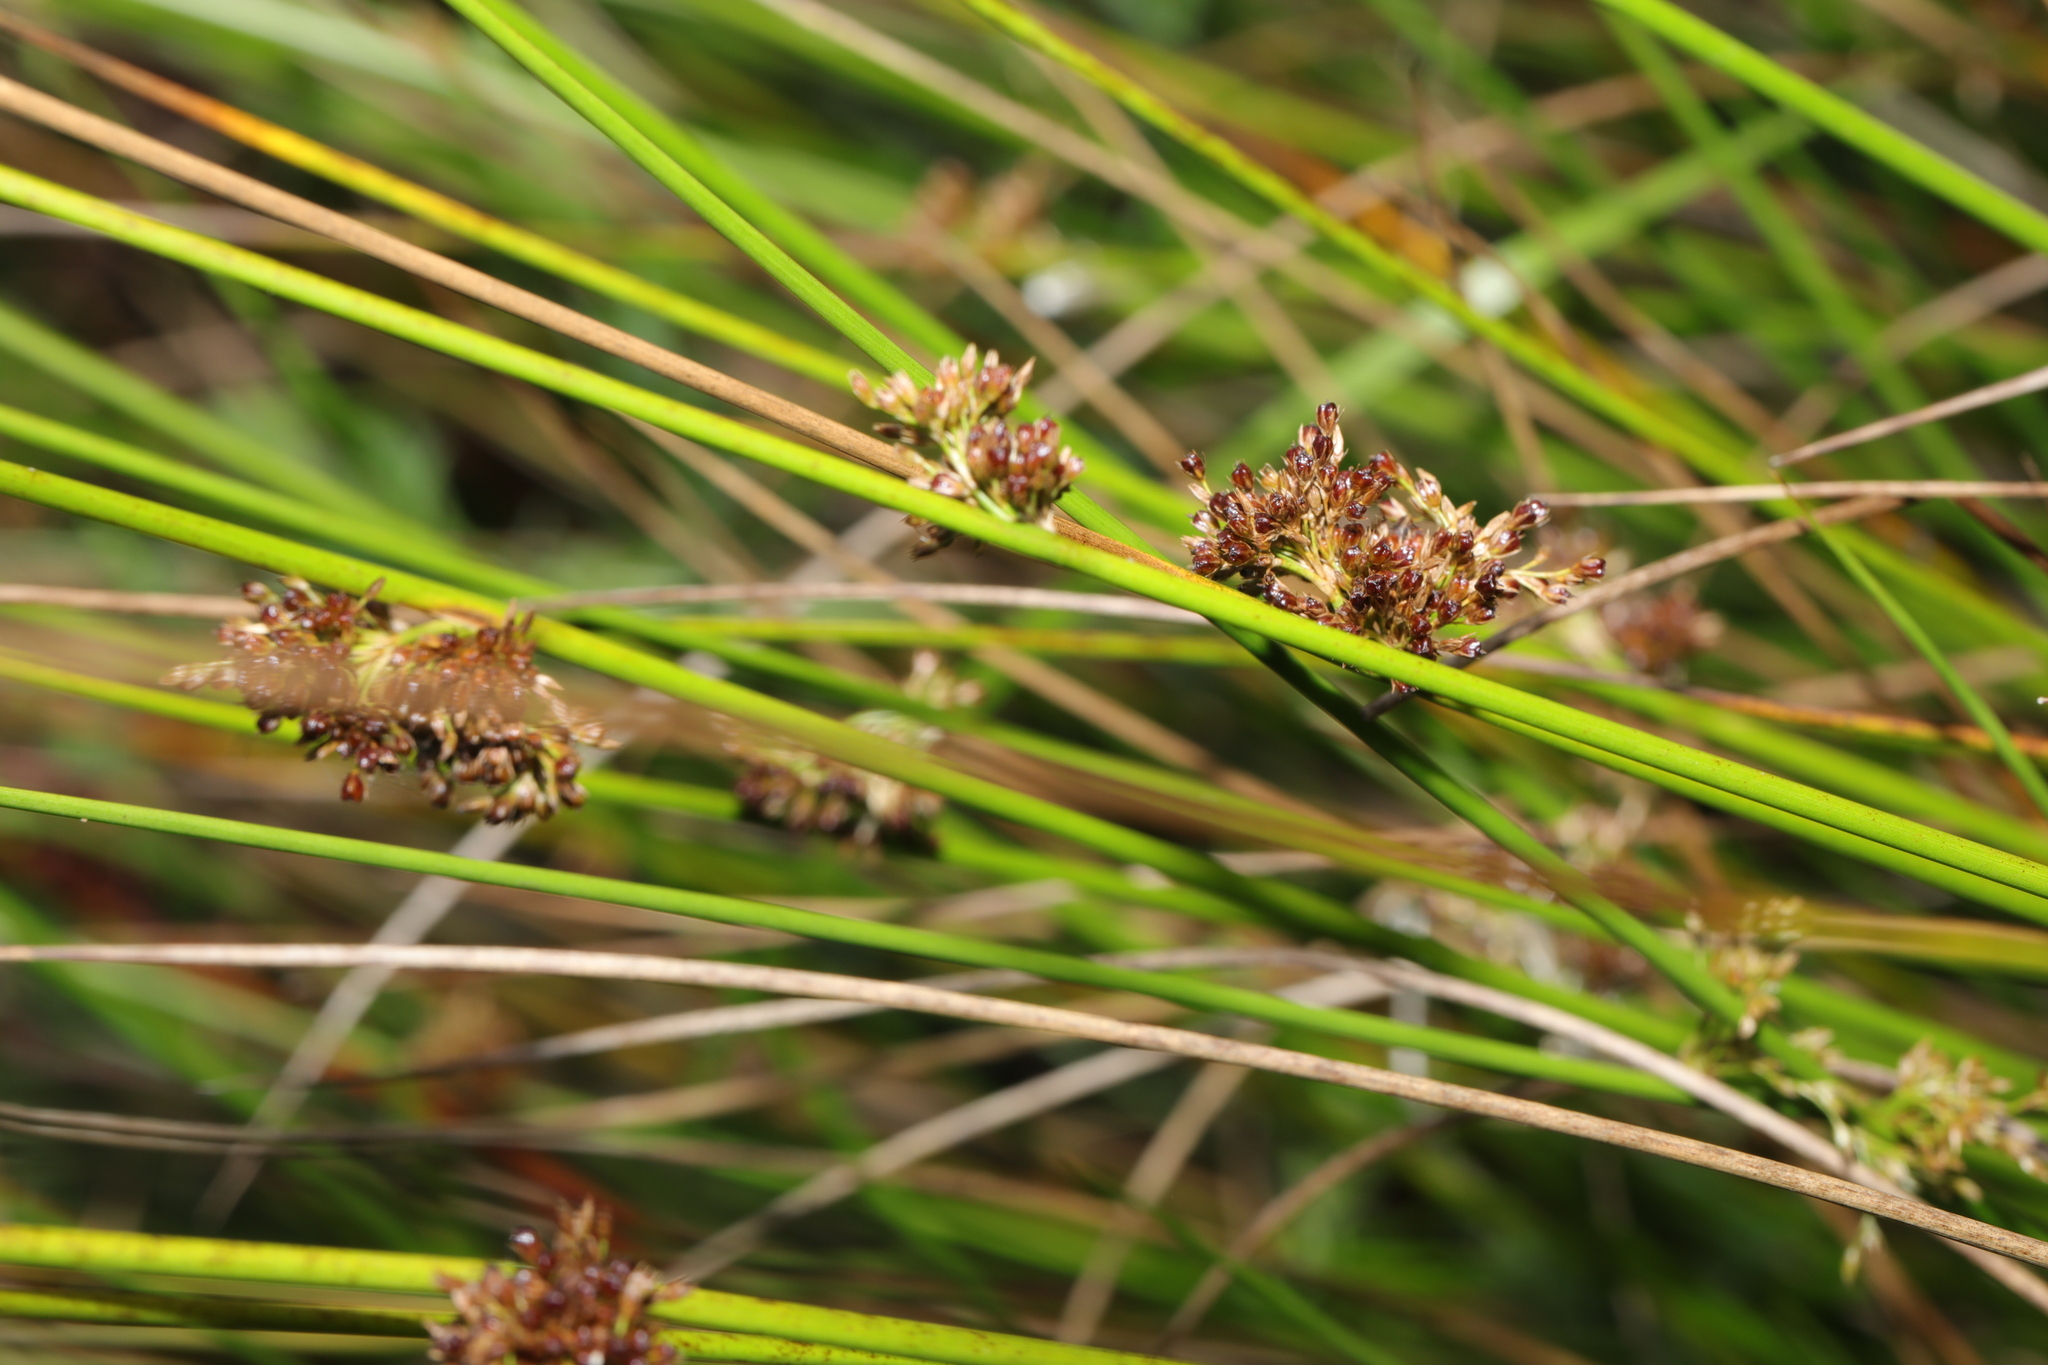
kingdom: Plantae
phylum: Tracheophyta
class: Liliopsida
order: Poales
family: Juncaceae
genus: Juncus
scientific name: Juncus effusus
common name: Soft rush
